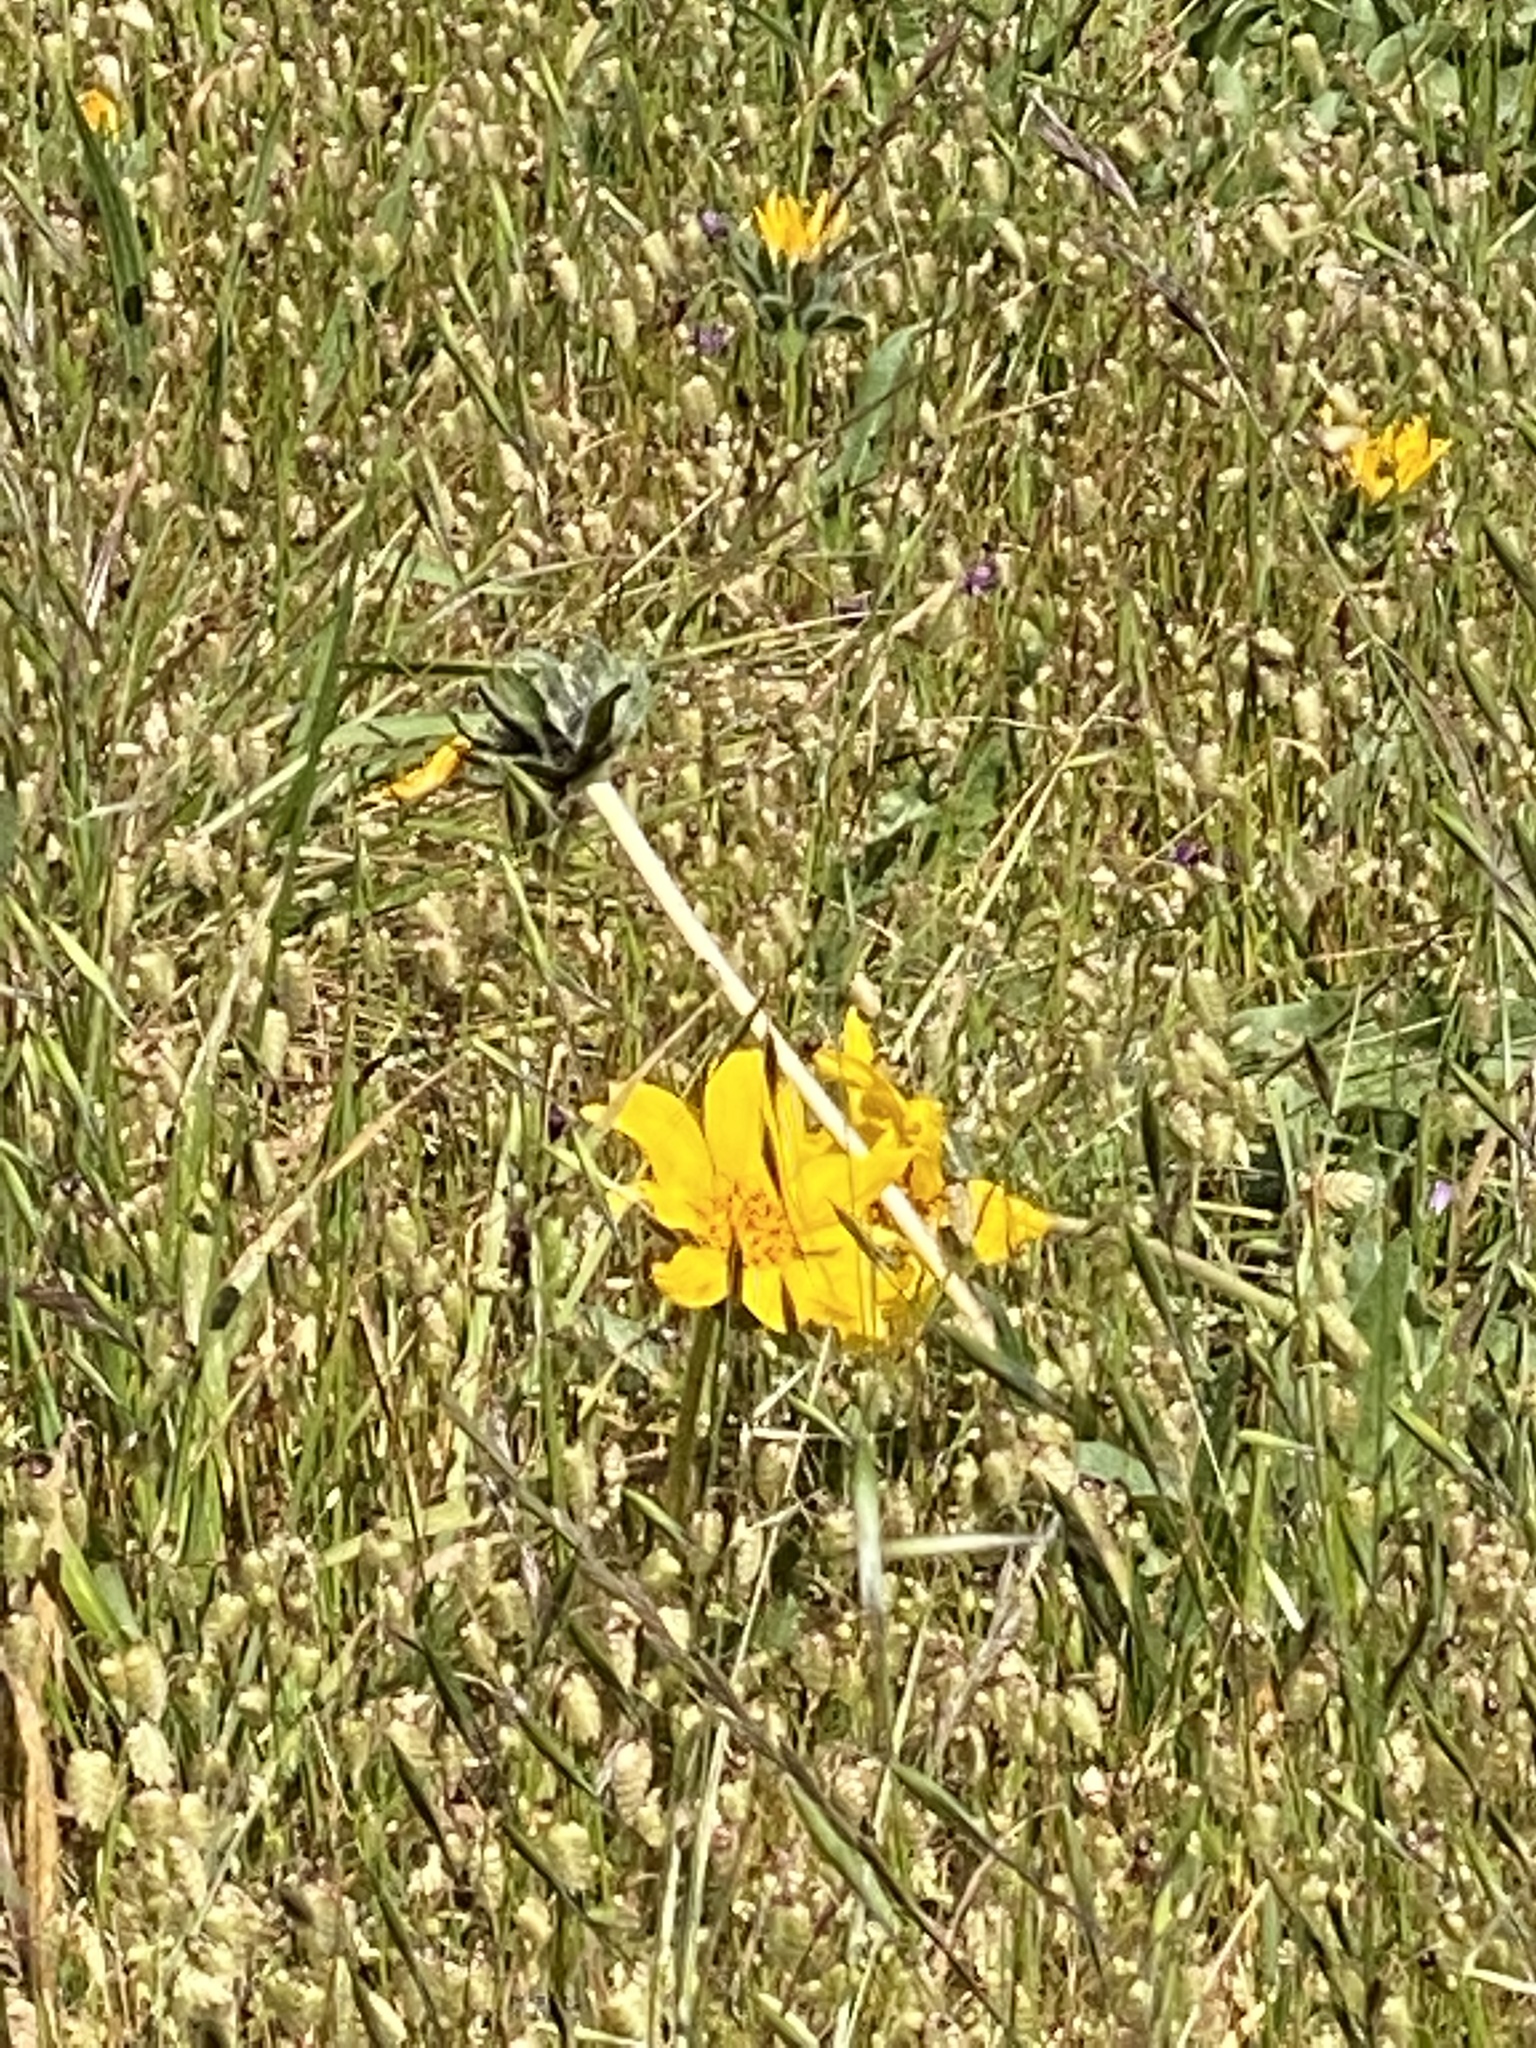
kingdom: Plantae
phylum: Tracheophyta
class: Magnoliopsida
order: Asterales
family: Asteraceae
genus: Wyethia
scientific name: Wyethia angustifolia
